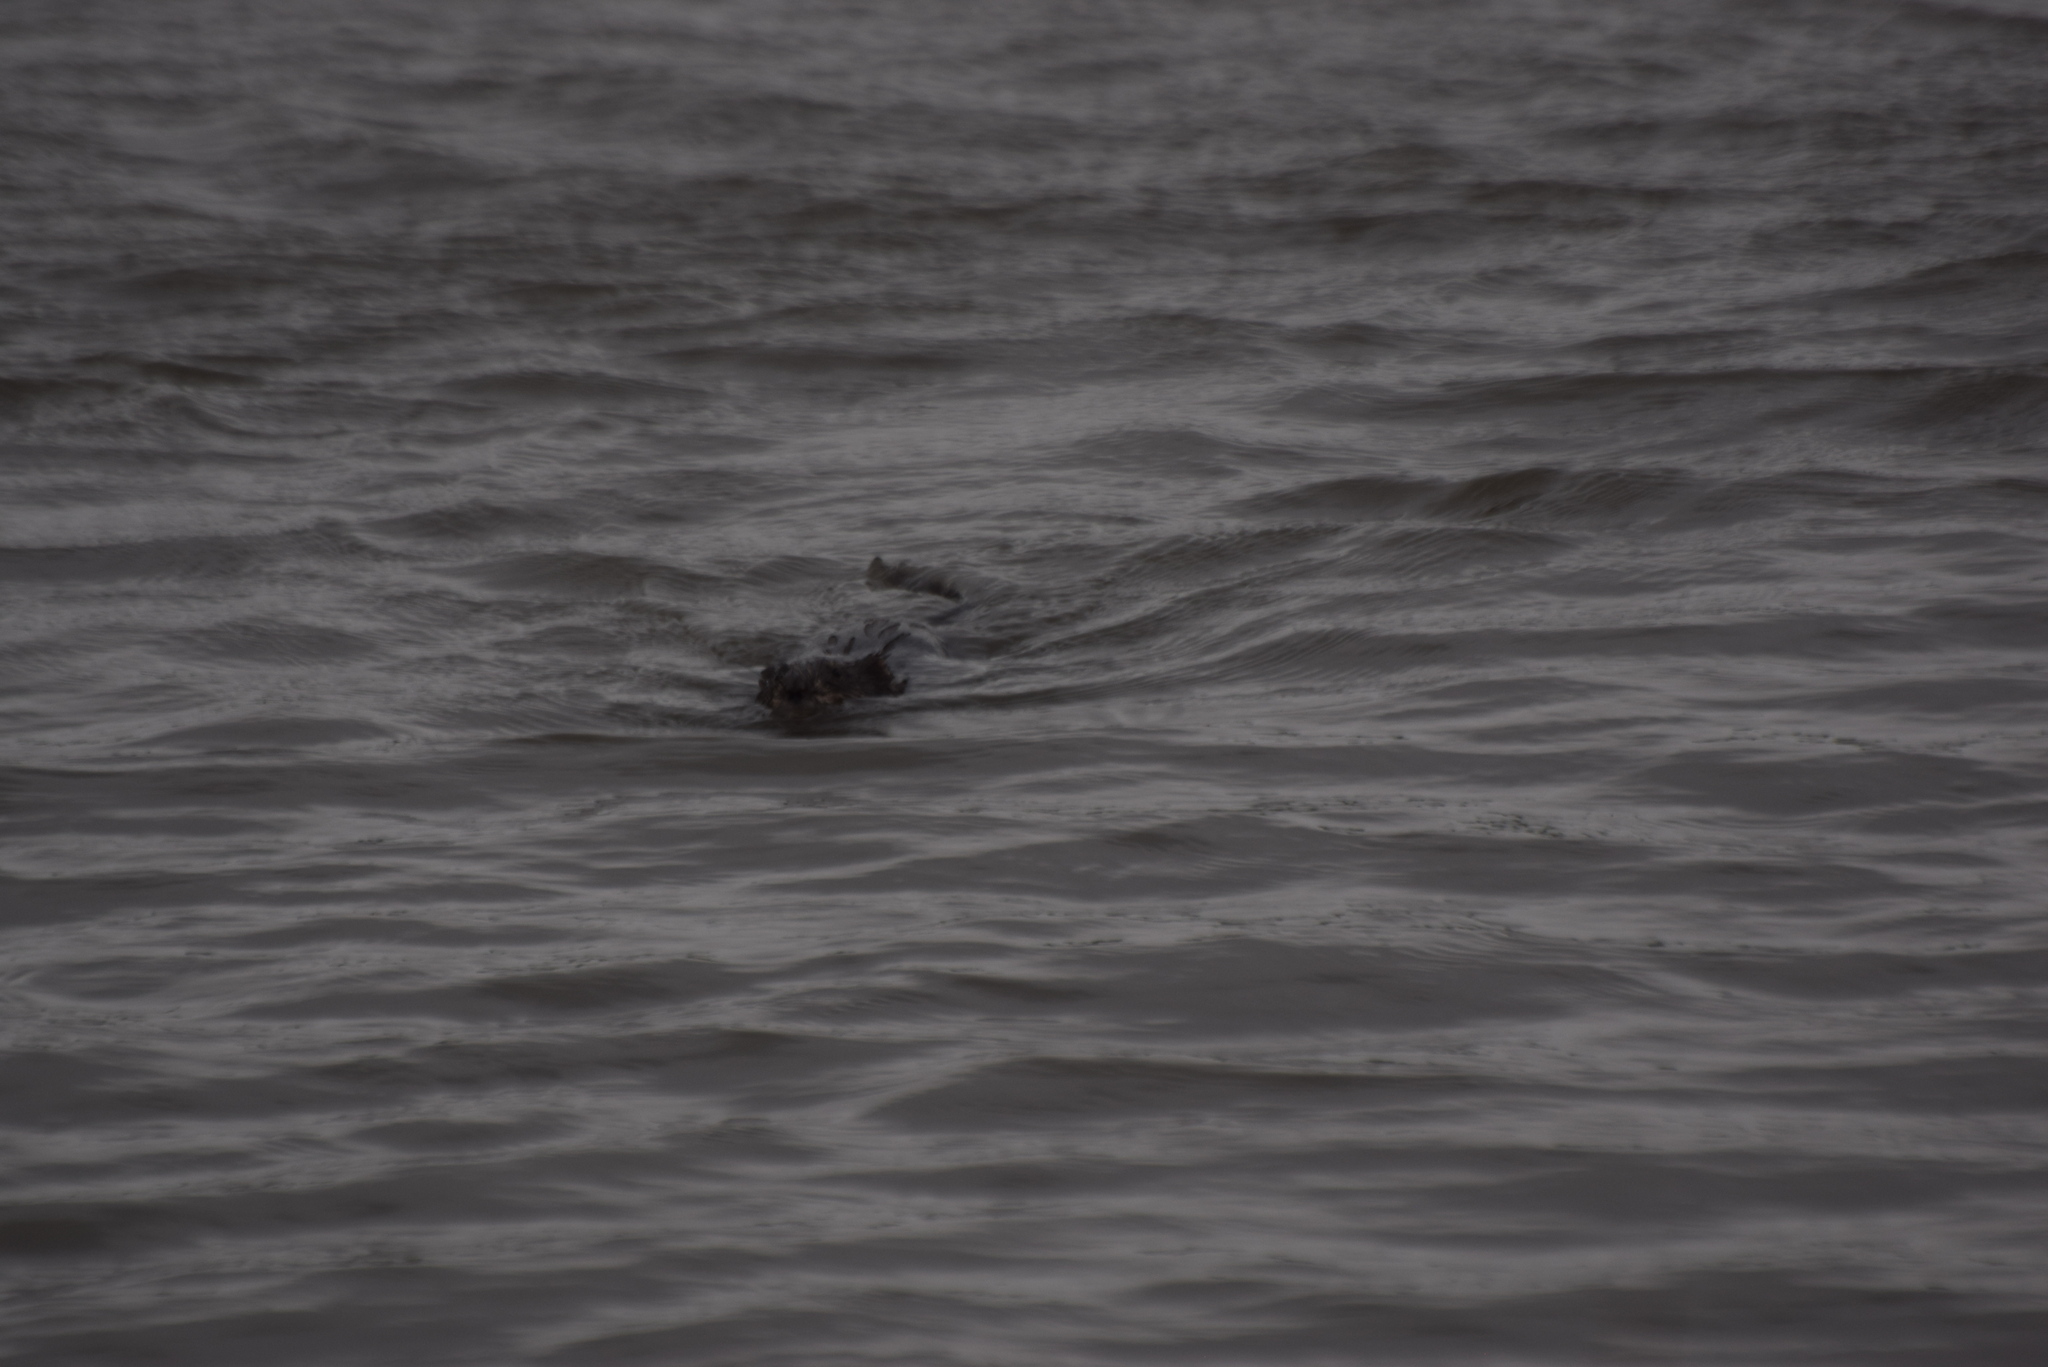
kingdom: Animalia
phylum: Chordata
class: Mammalia
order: Rodentia
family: Cricetidae
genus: Ondatra
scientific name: Ondatra zibethicus
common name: Muskrat
